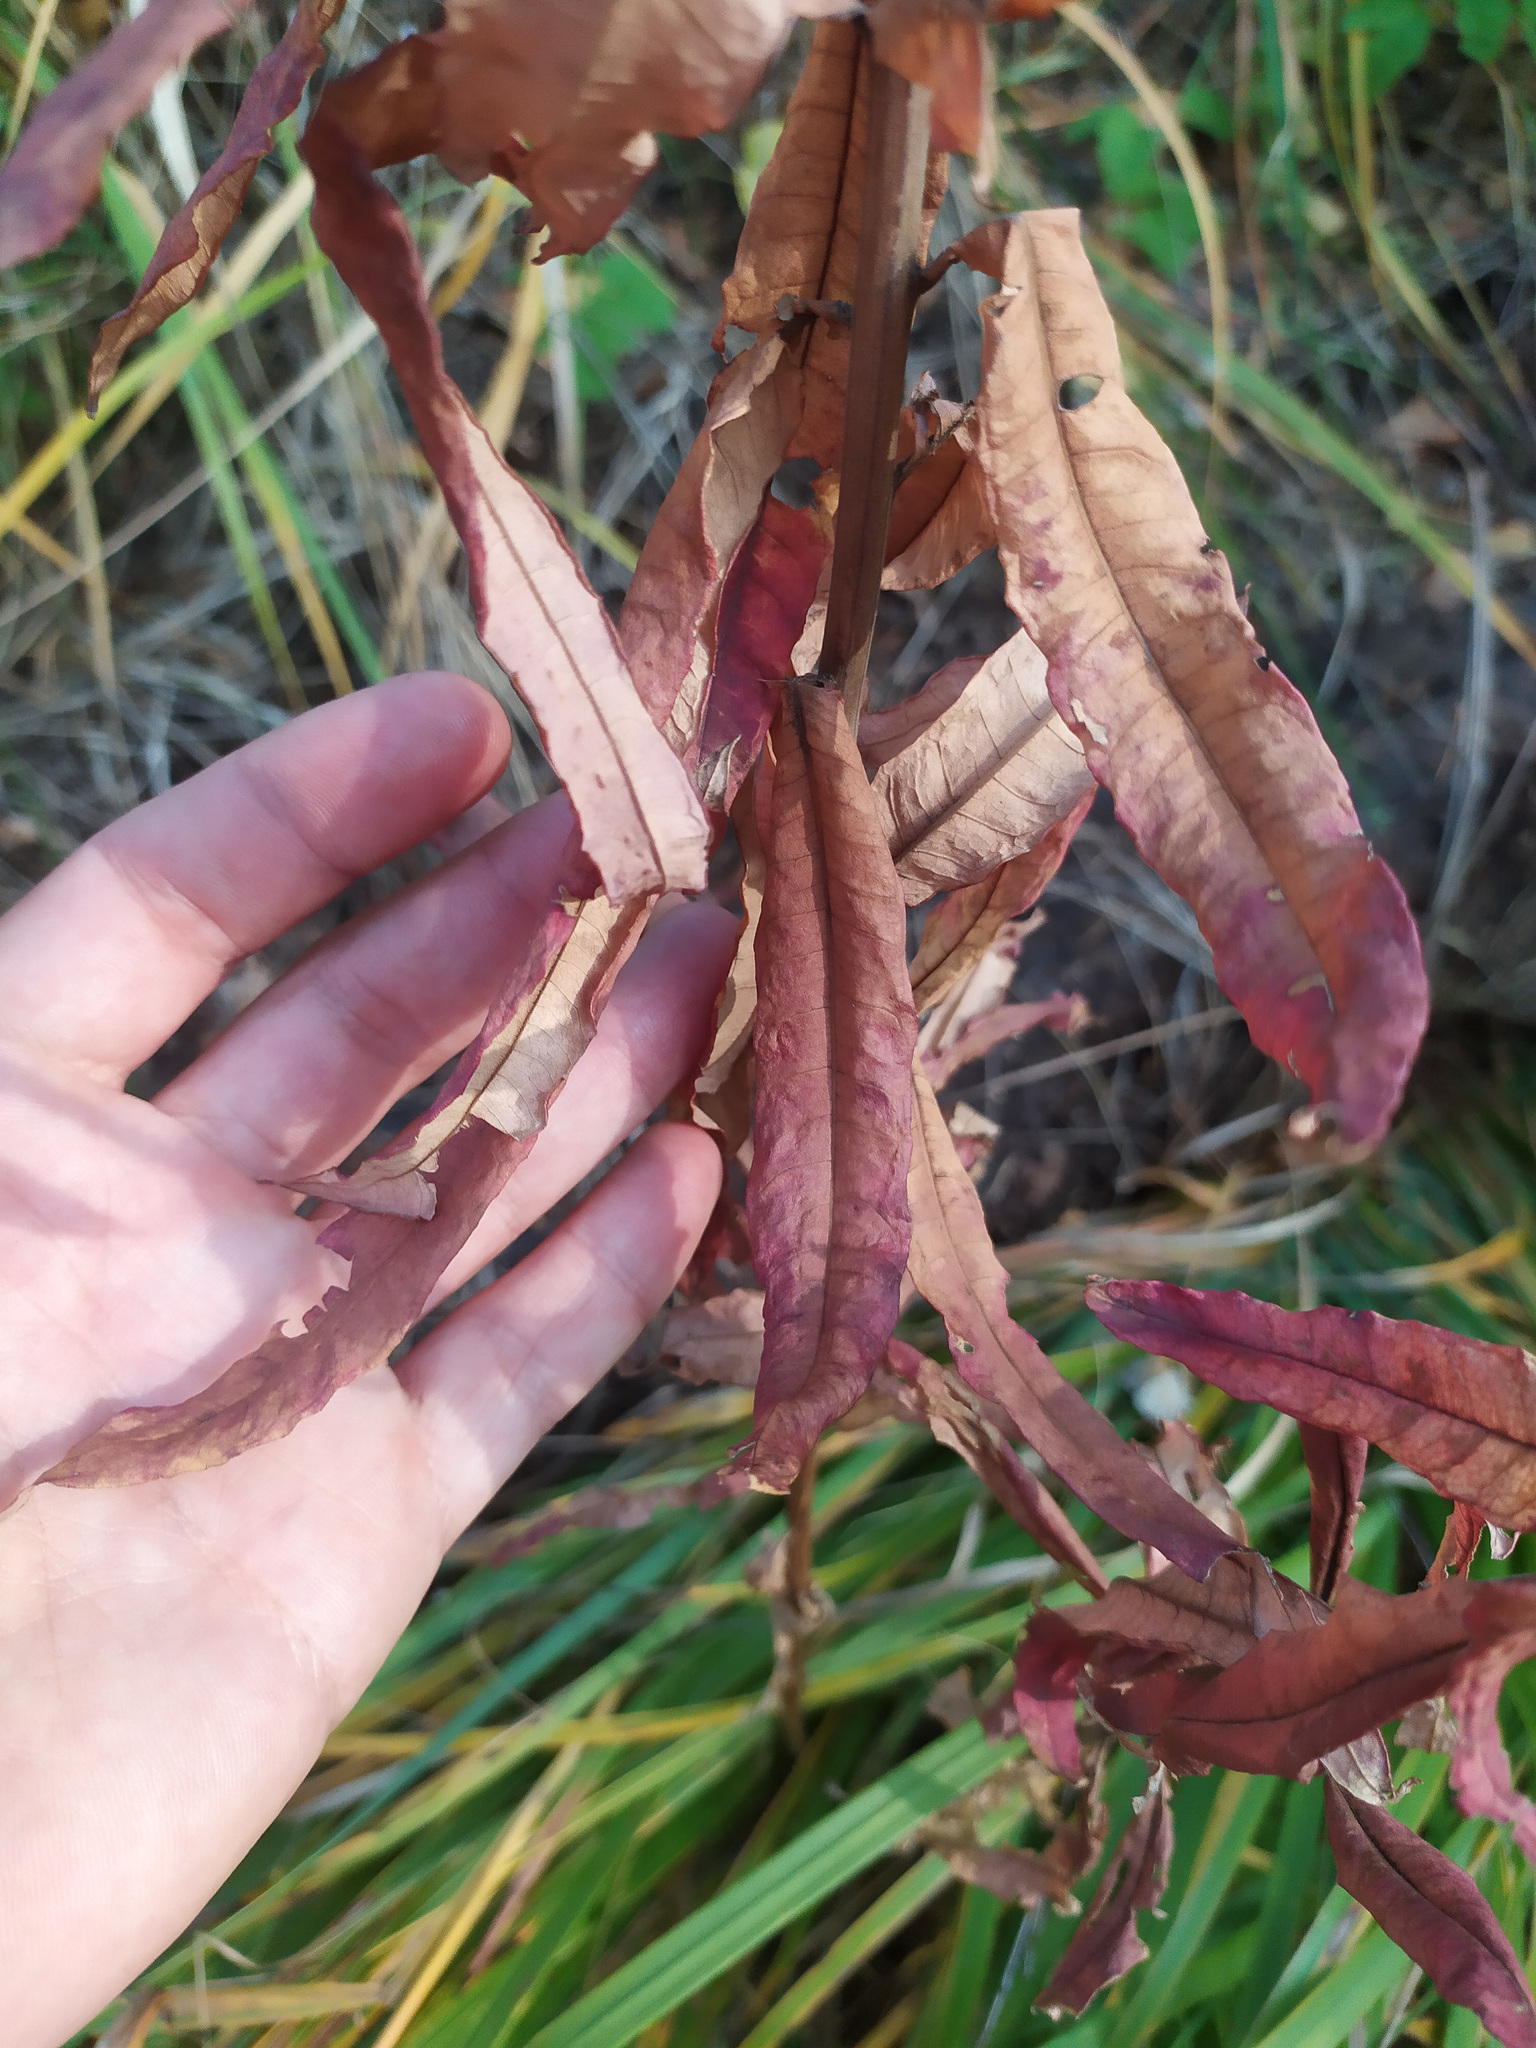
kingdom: Plantae
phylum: Tracheophyta
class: Magnoliopsida
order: Myrtales
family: Onagraceae
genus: Chamaenerion
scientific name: Chamaenerion angustifolium
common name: Fireweed
